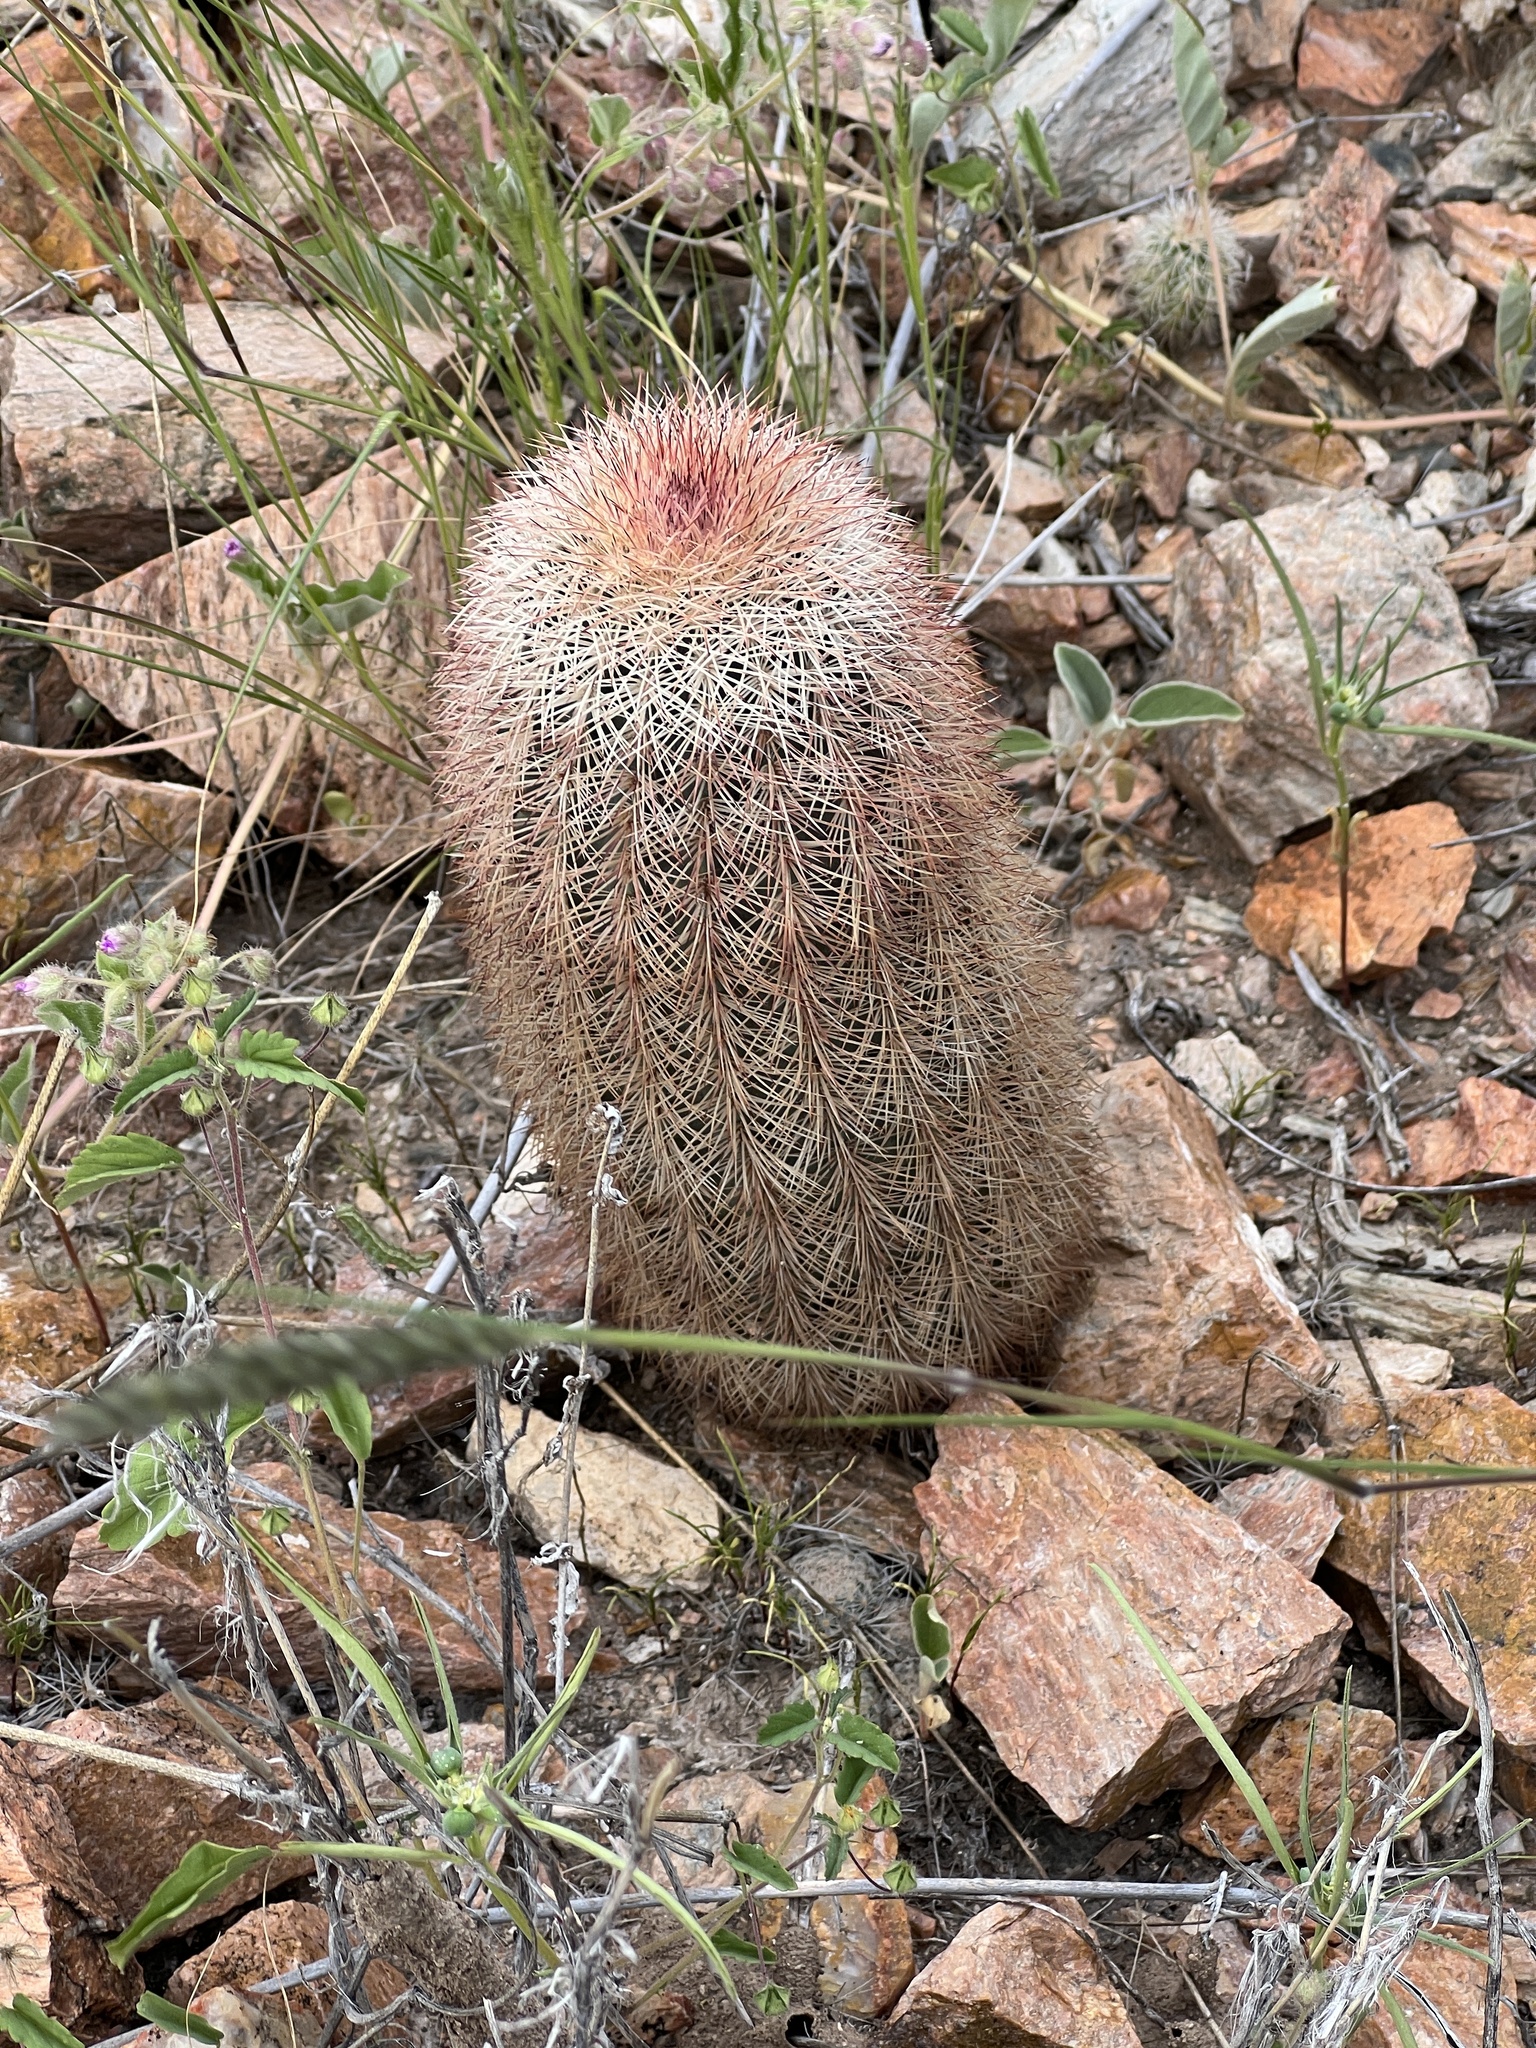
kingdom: Plantae
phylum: Tracheophyta
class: Magnoliopsida
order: Caryophyllales
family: Cactaceae
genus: Echinocereus
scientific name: Echinocereus dasyacanthus
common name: Spiny hedgehog cactus
